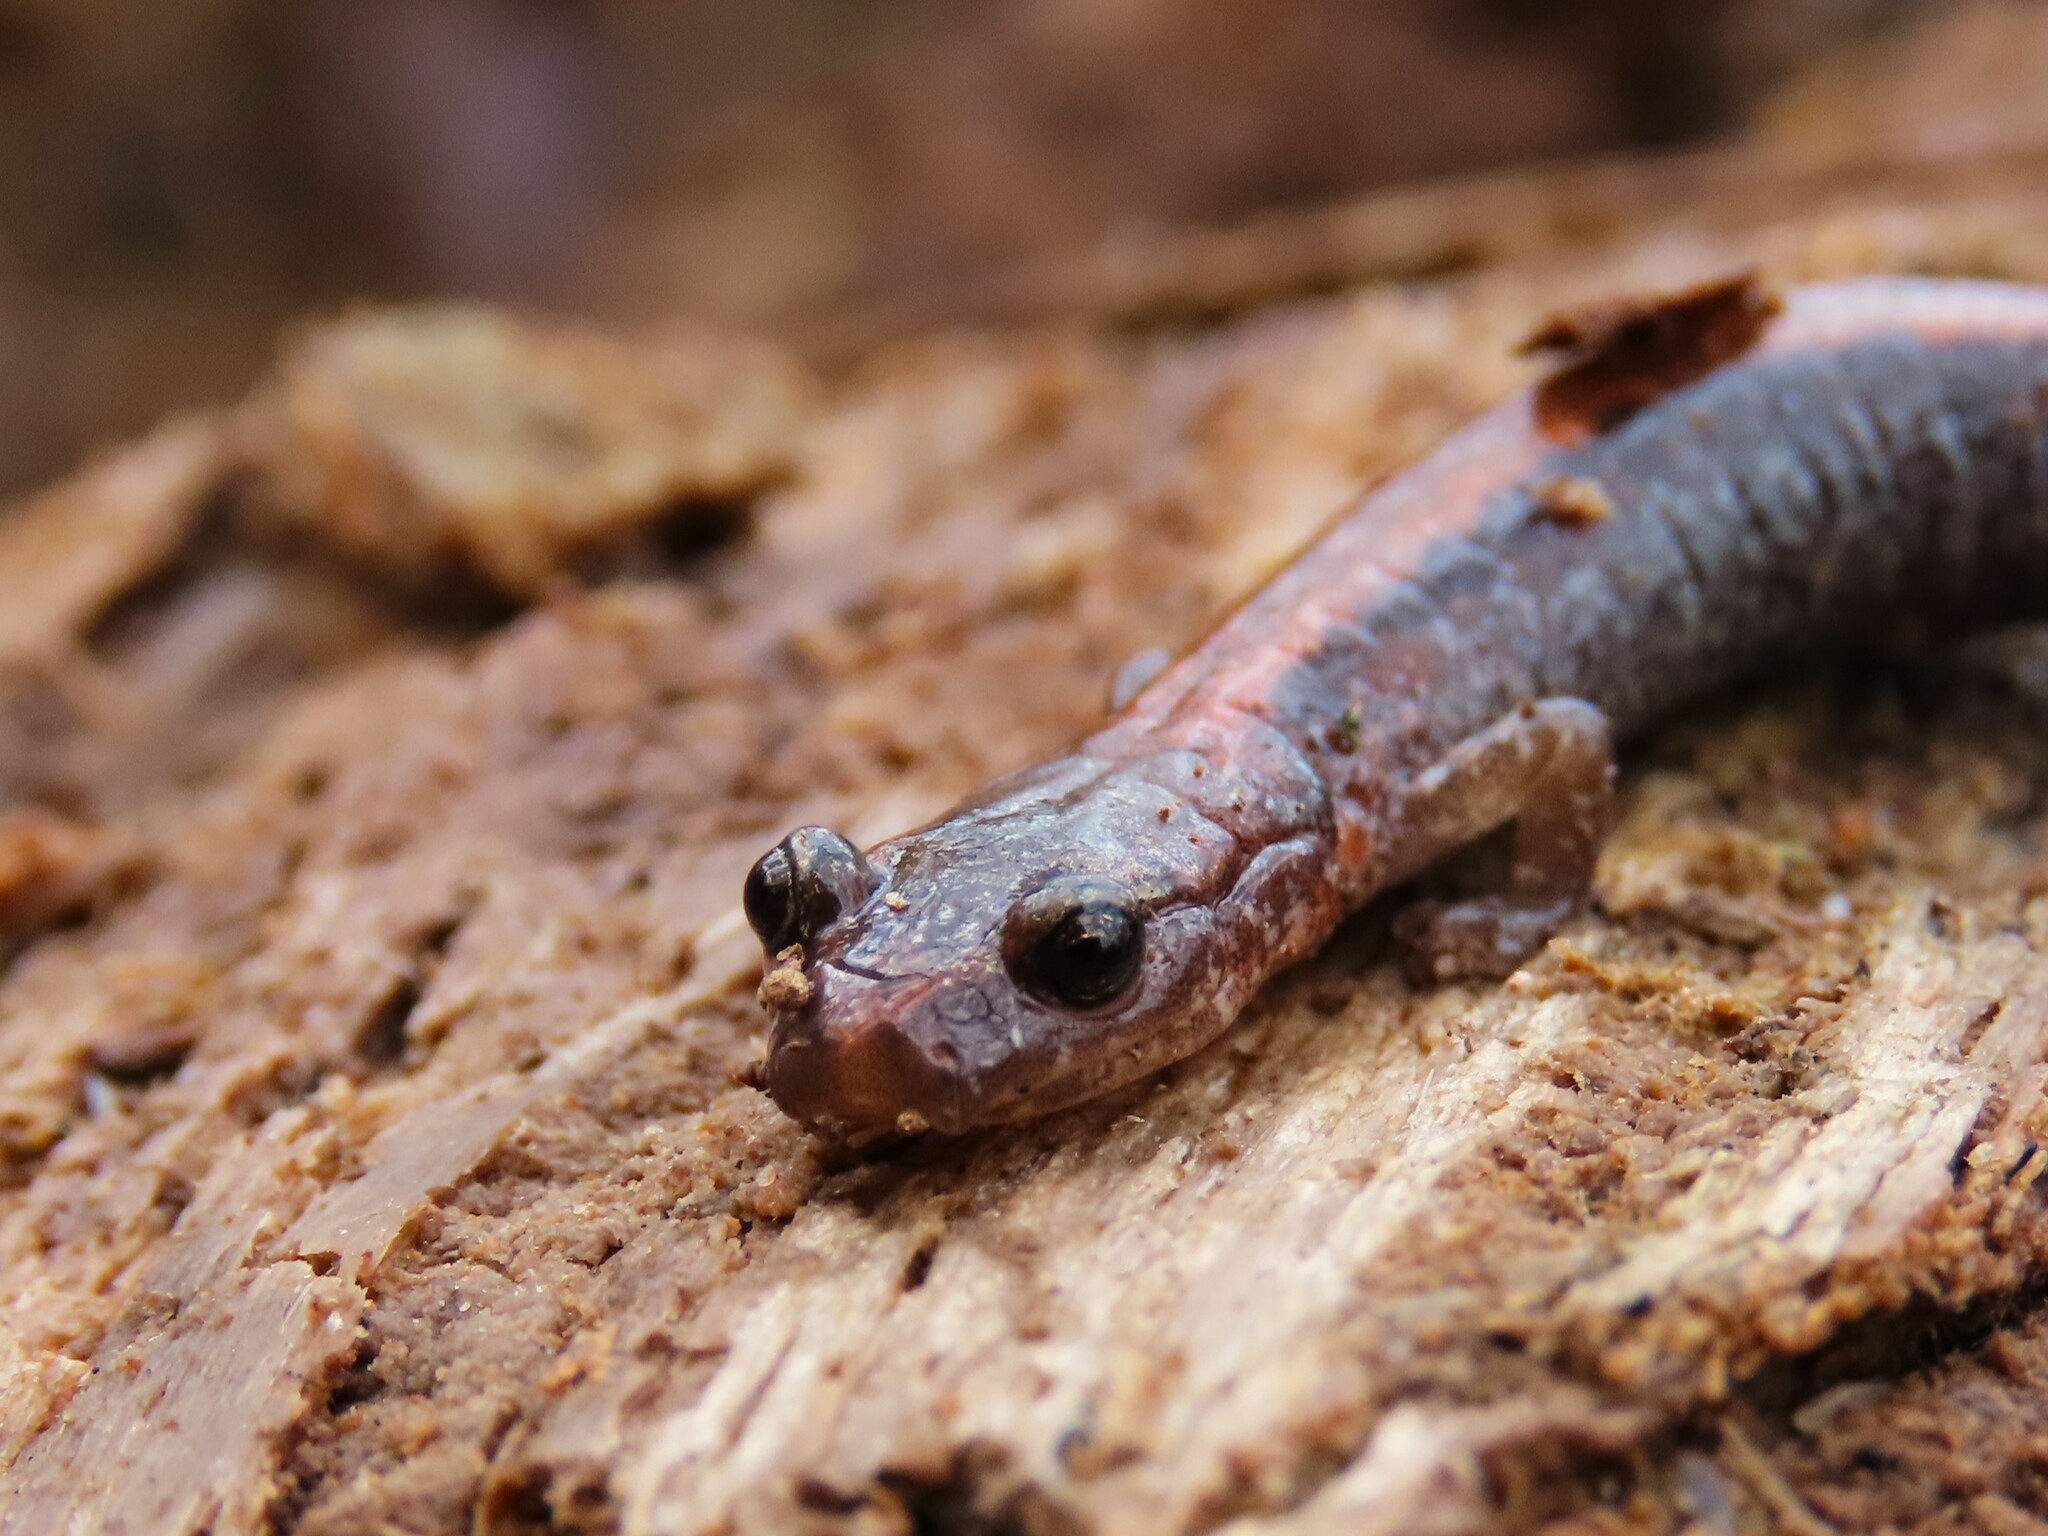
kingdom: Animalia
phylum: Chordata
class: Amphibia
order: Caudata
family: Plethodontidae
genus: Plethodon
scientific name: Plethodon cinereus
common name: Redback salamander
